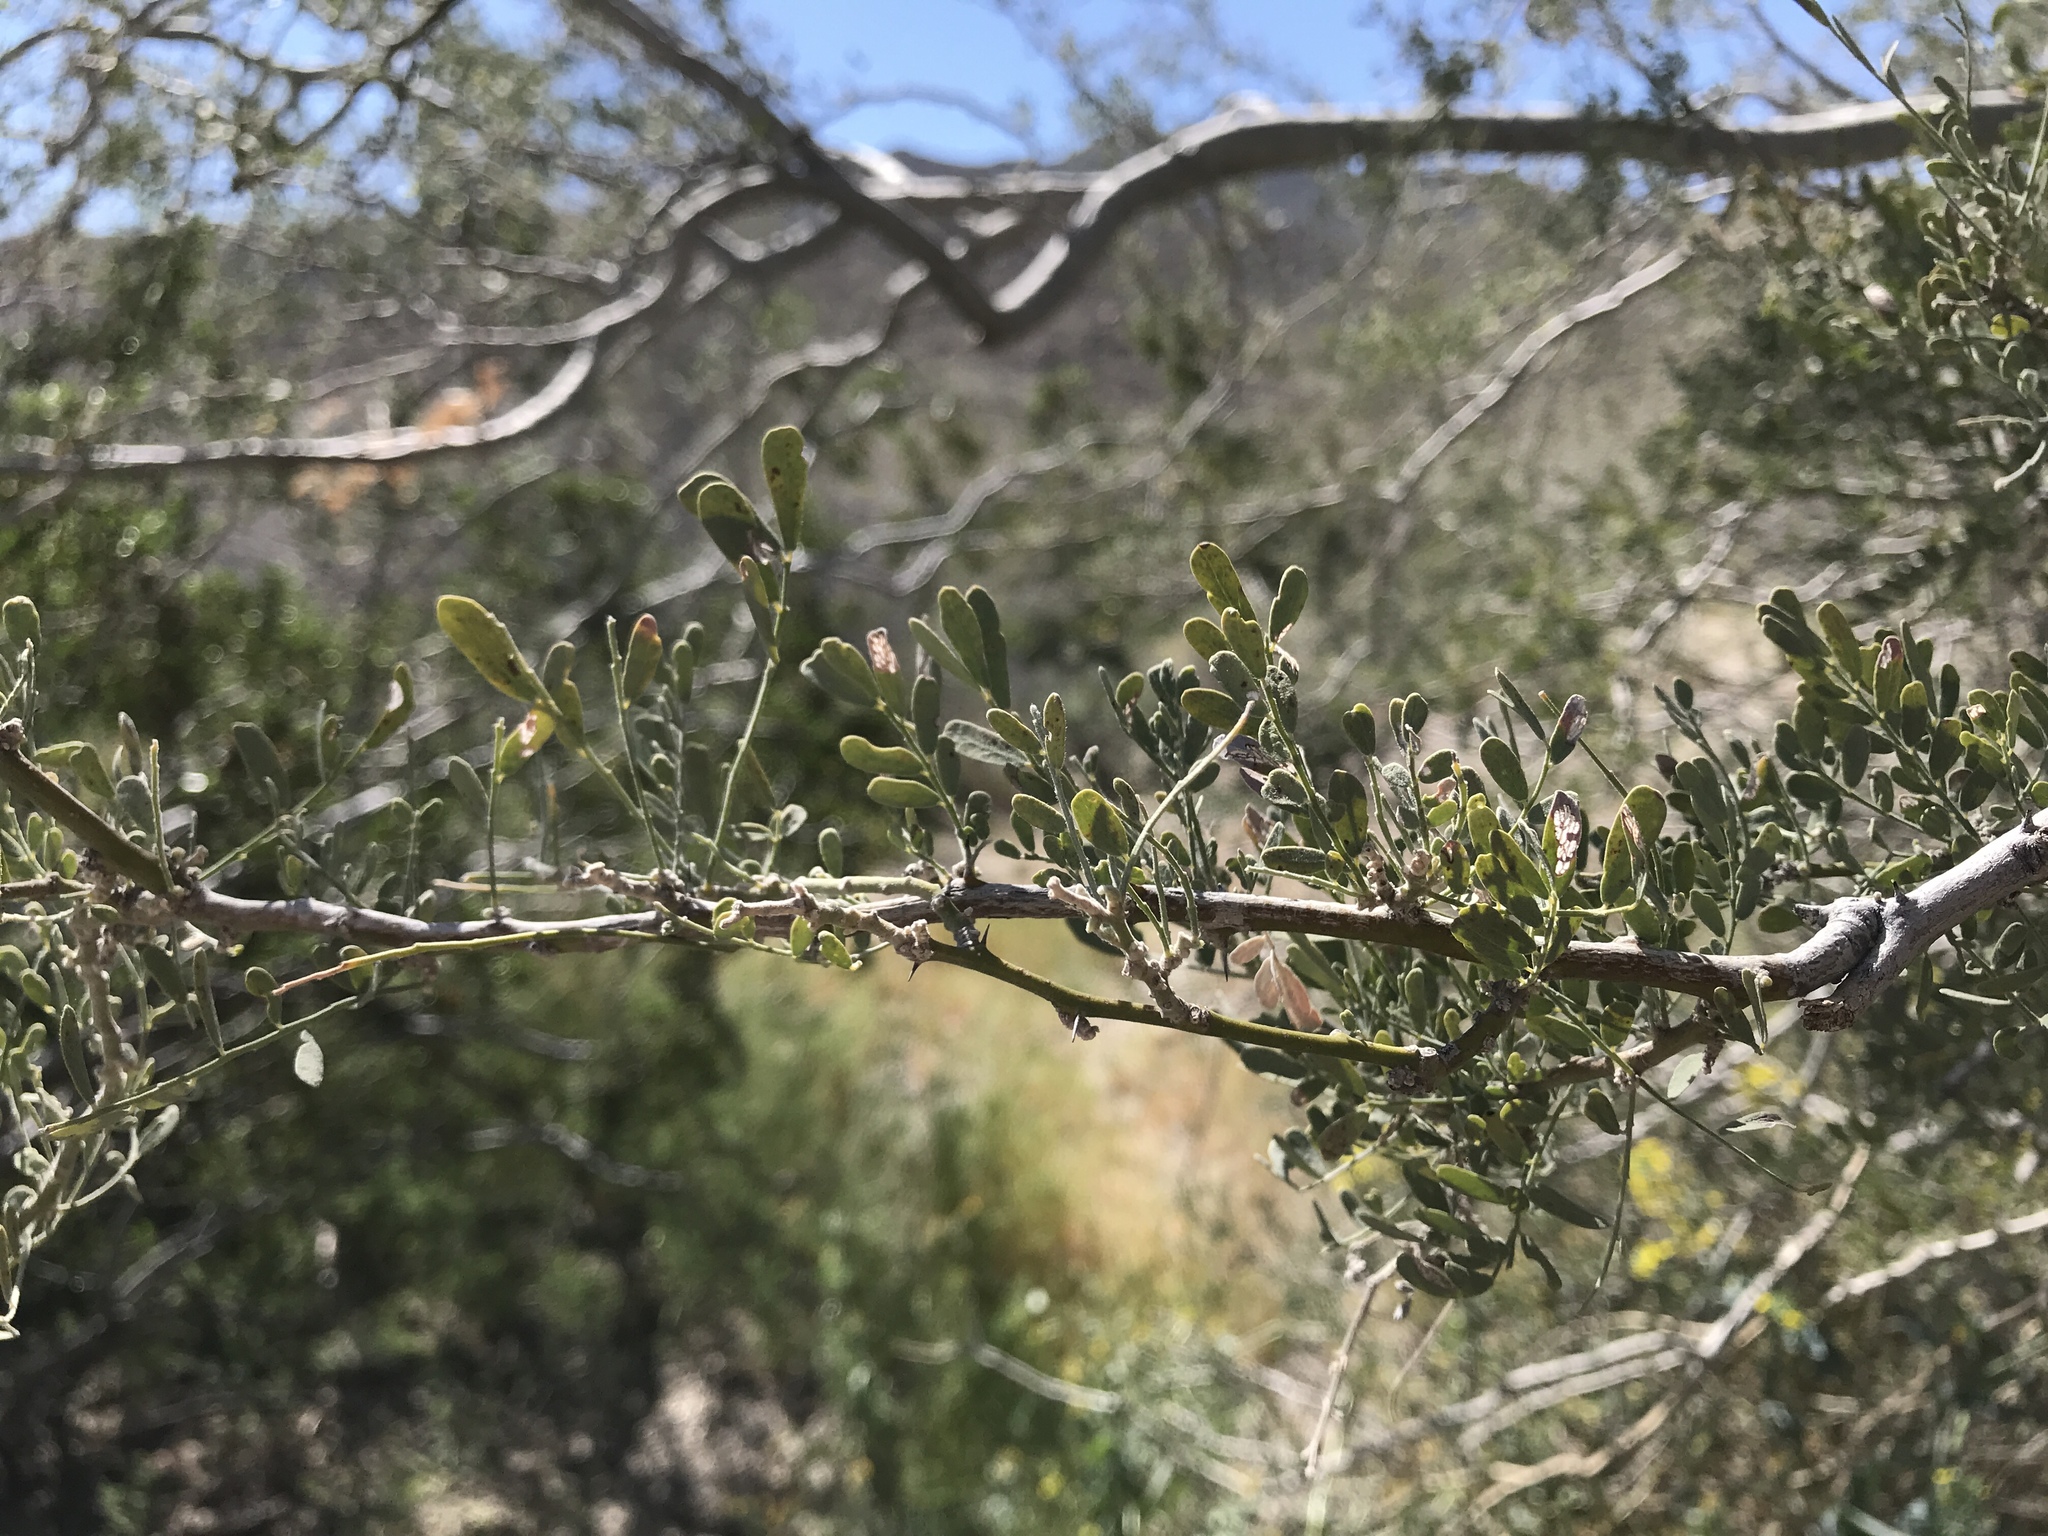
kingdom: Plantae
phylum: Tracheophyta
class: Magnoliopsida
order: Fabales
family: Fabaceae
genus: Olneya
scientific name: Olneya tesota
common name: Desert ironwood
